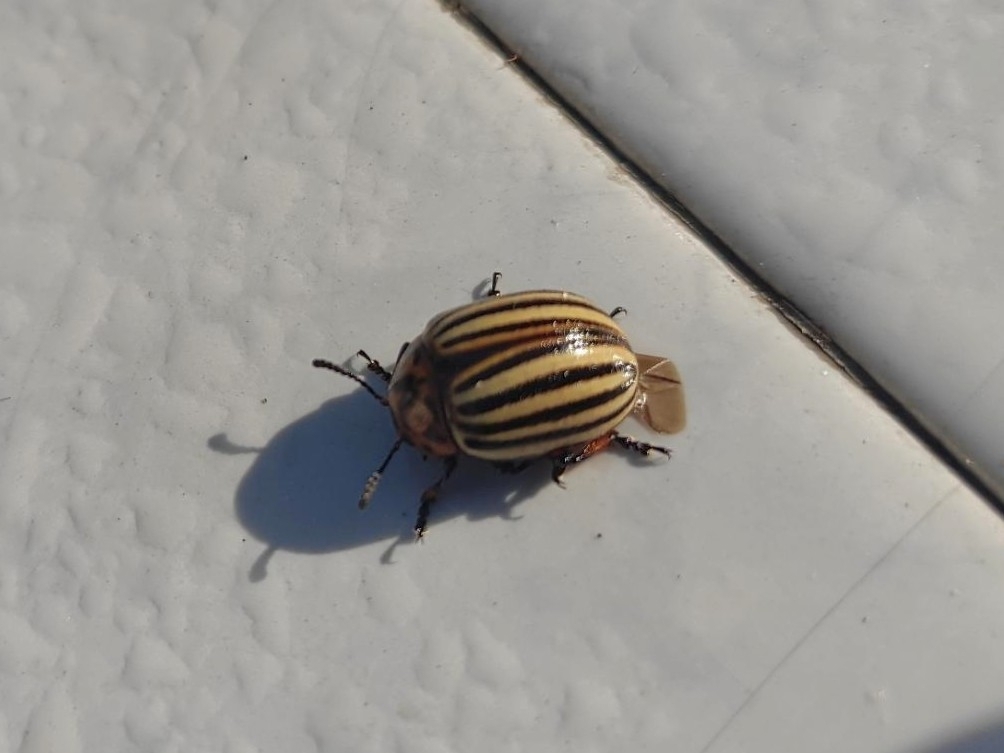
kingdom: Animalia
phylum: Arthropoda
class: Insecta
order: Coleoptera
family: Chrysomelidae
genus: Leptinotarsa
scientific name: Leptinotarsa decemlineata
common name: Colorado potato beetle
